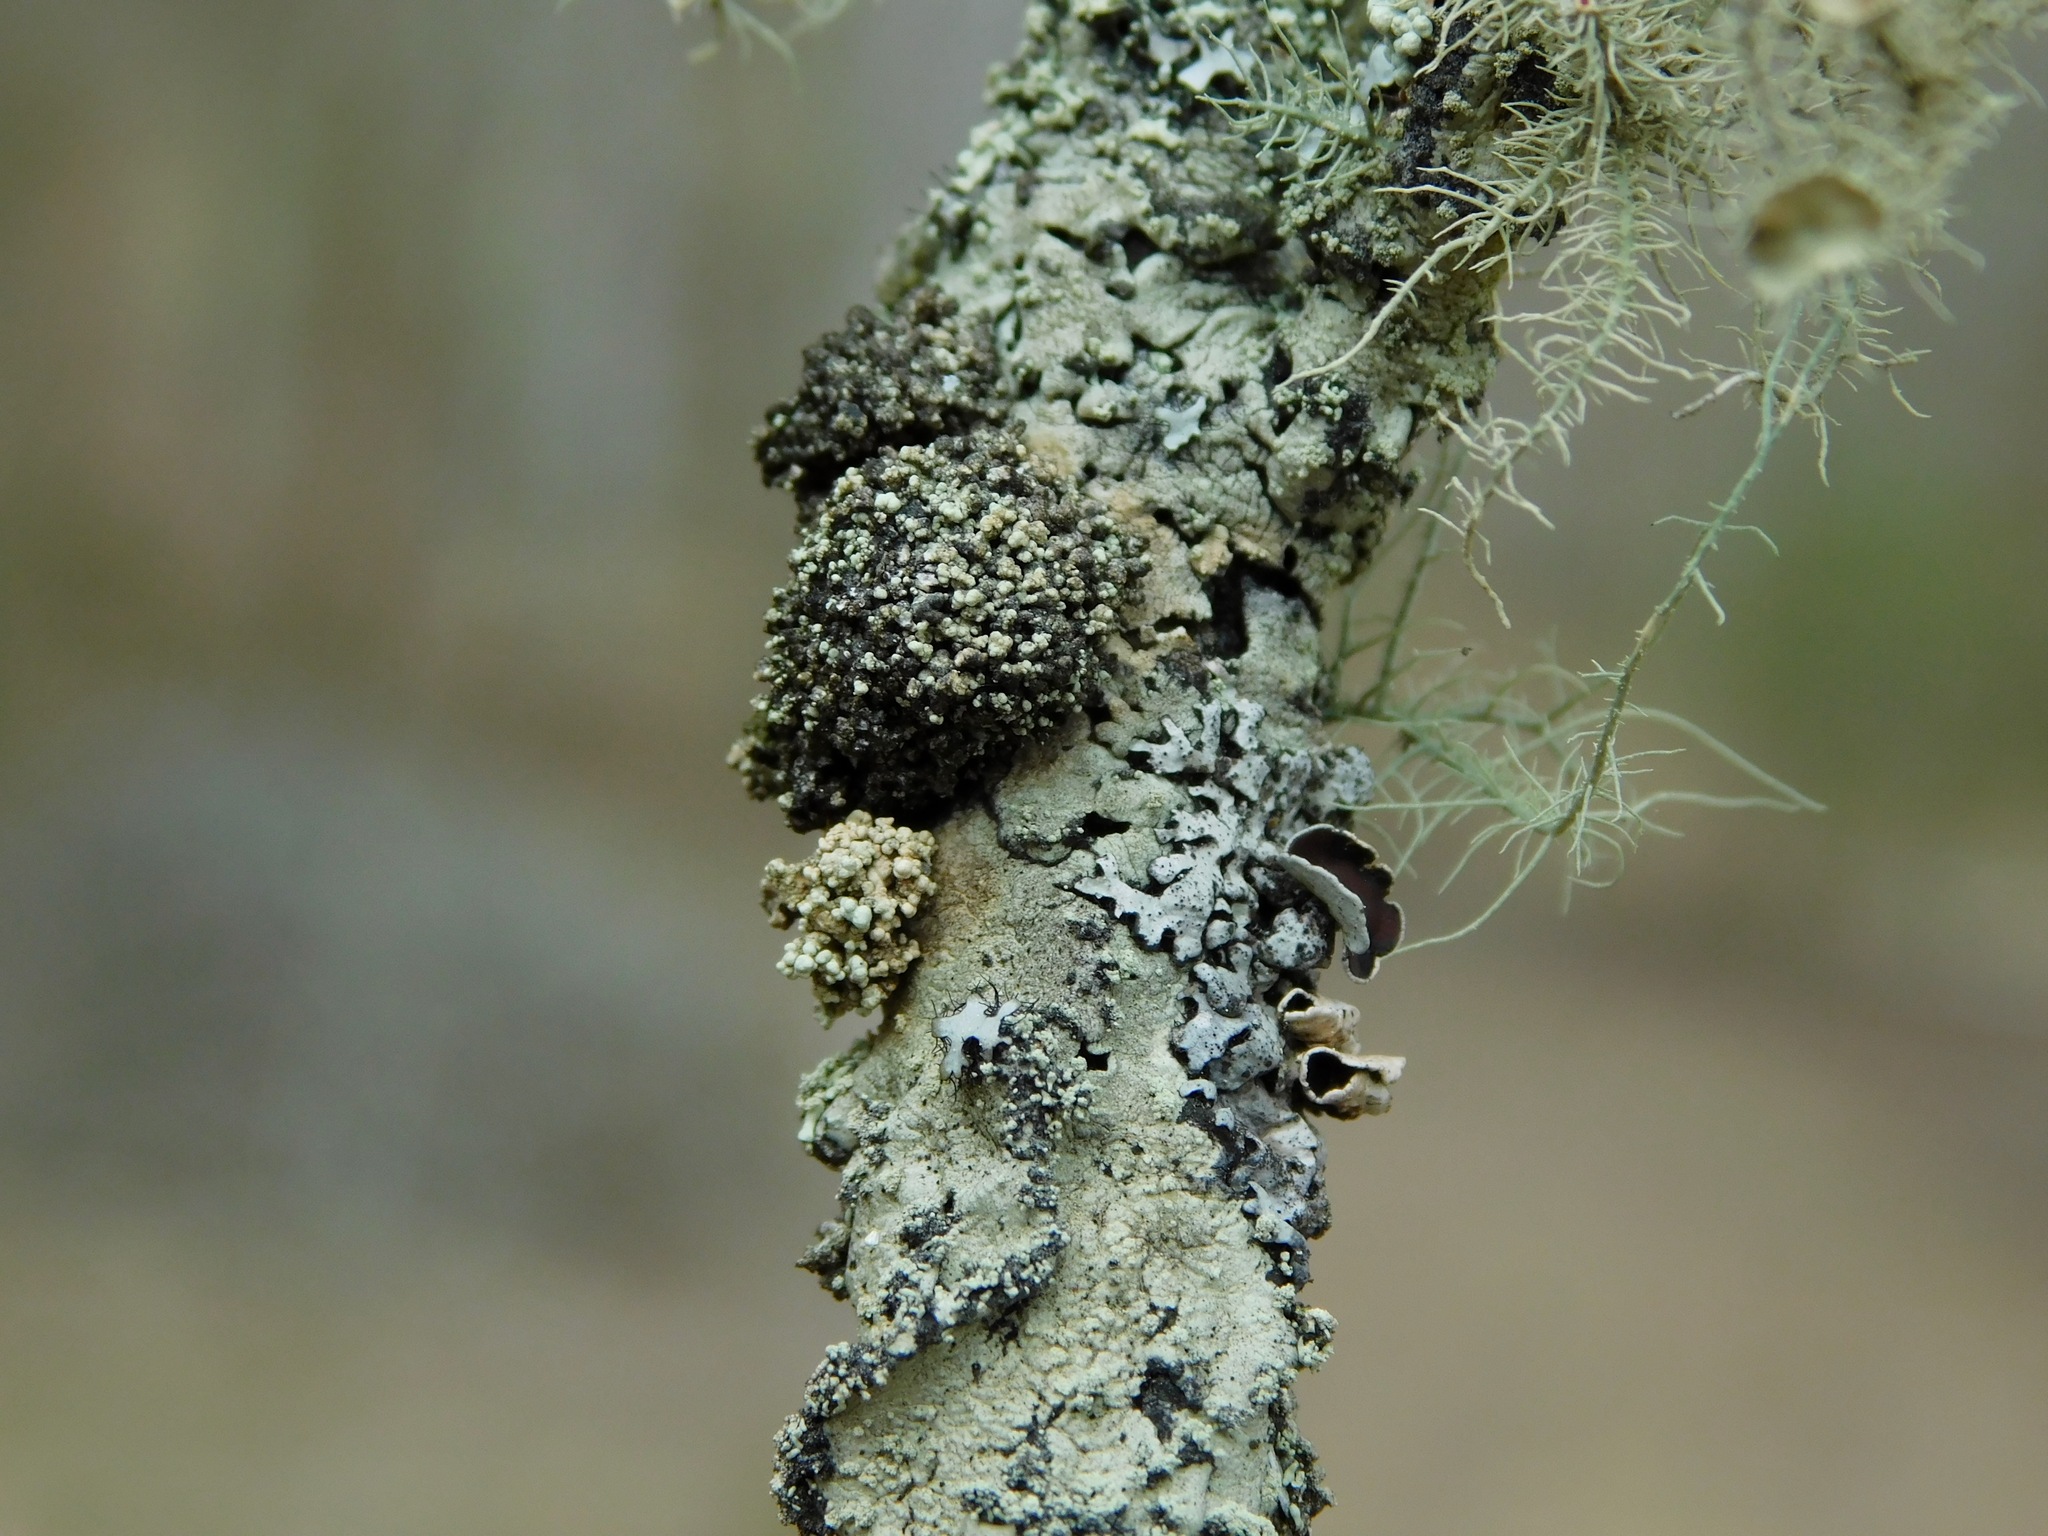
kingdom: Fungi
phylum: Basidiomycota
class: Tremellomycetes
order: Tremellales
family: Tremellaceae
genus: Tremella
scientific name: Tremella flavoparmeliae
